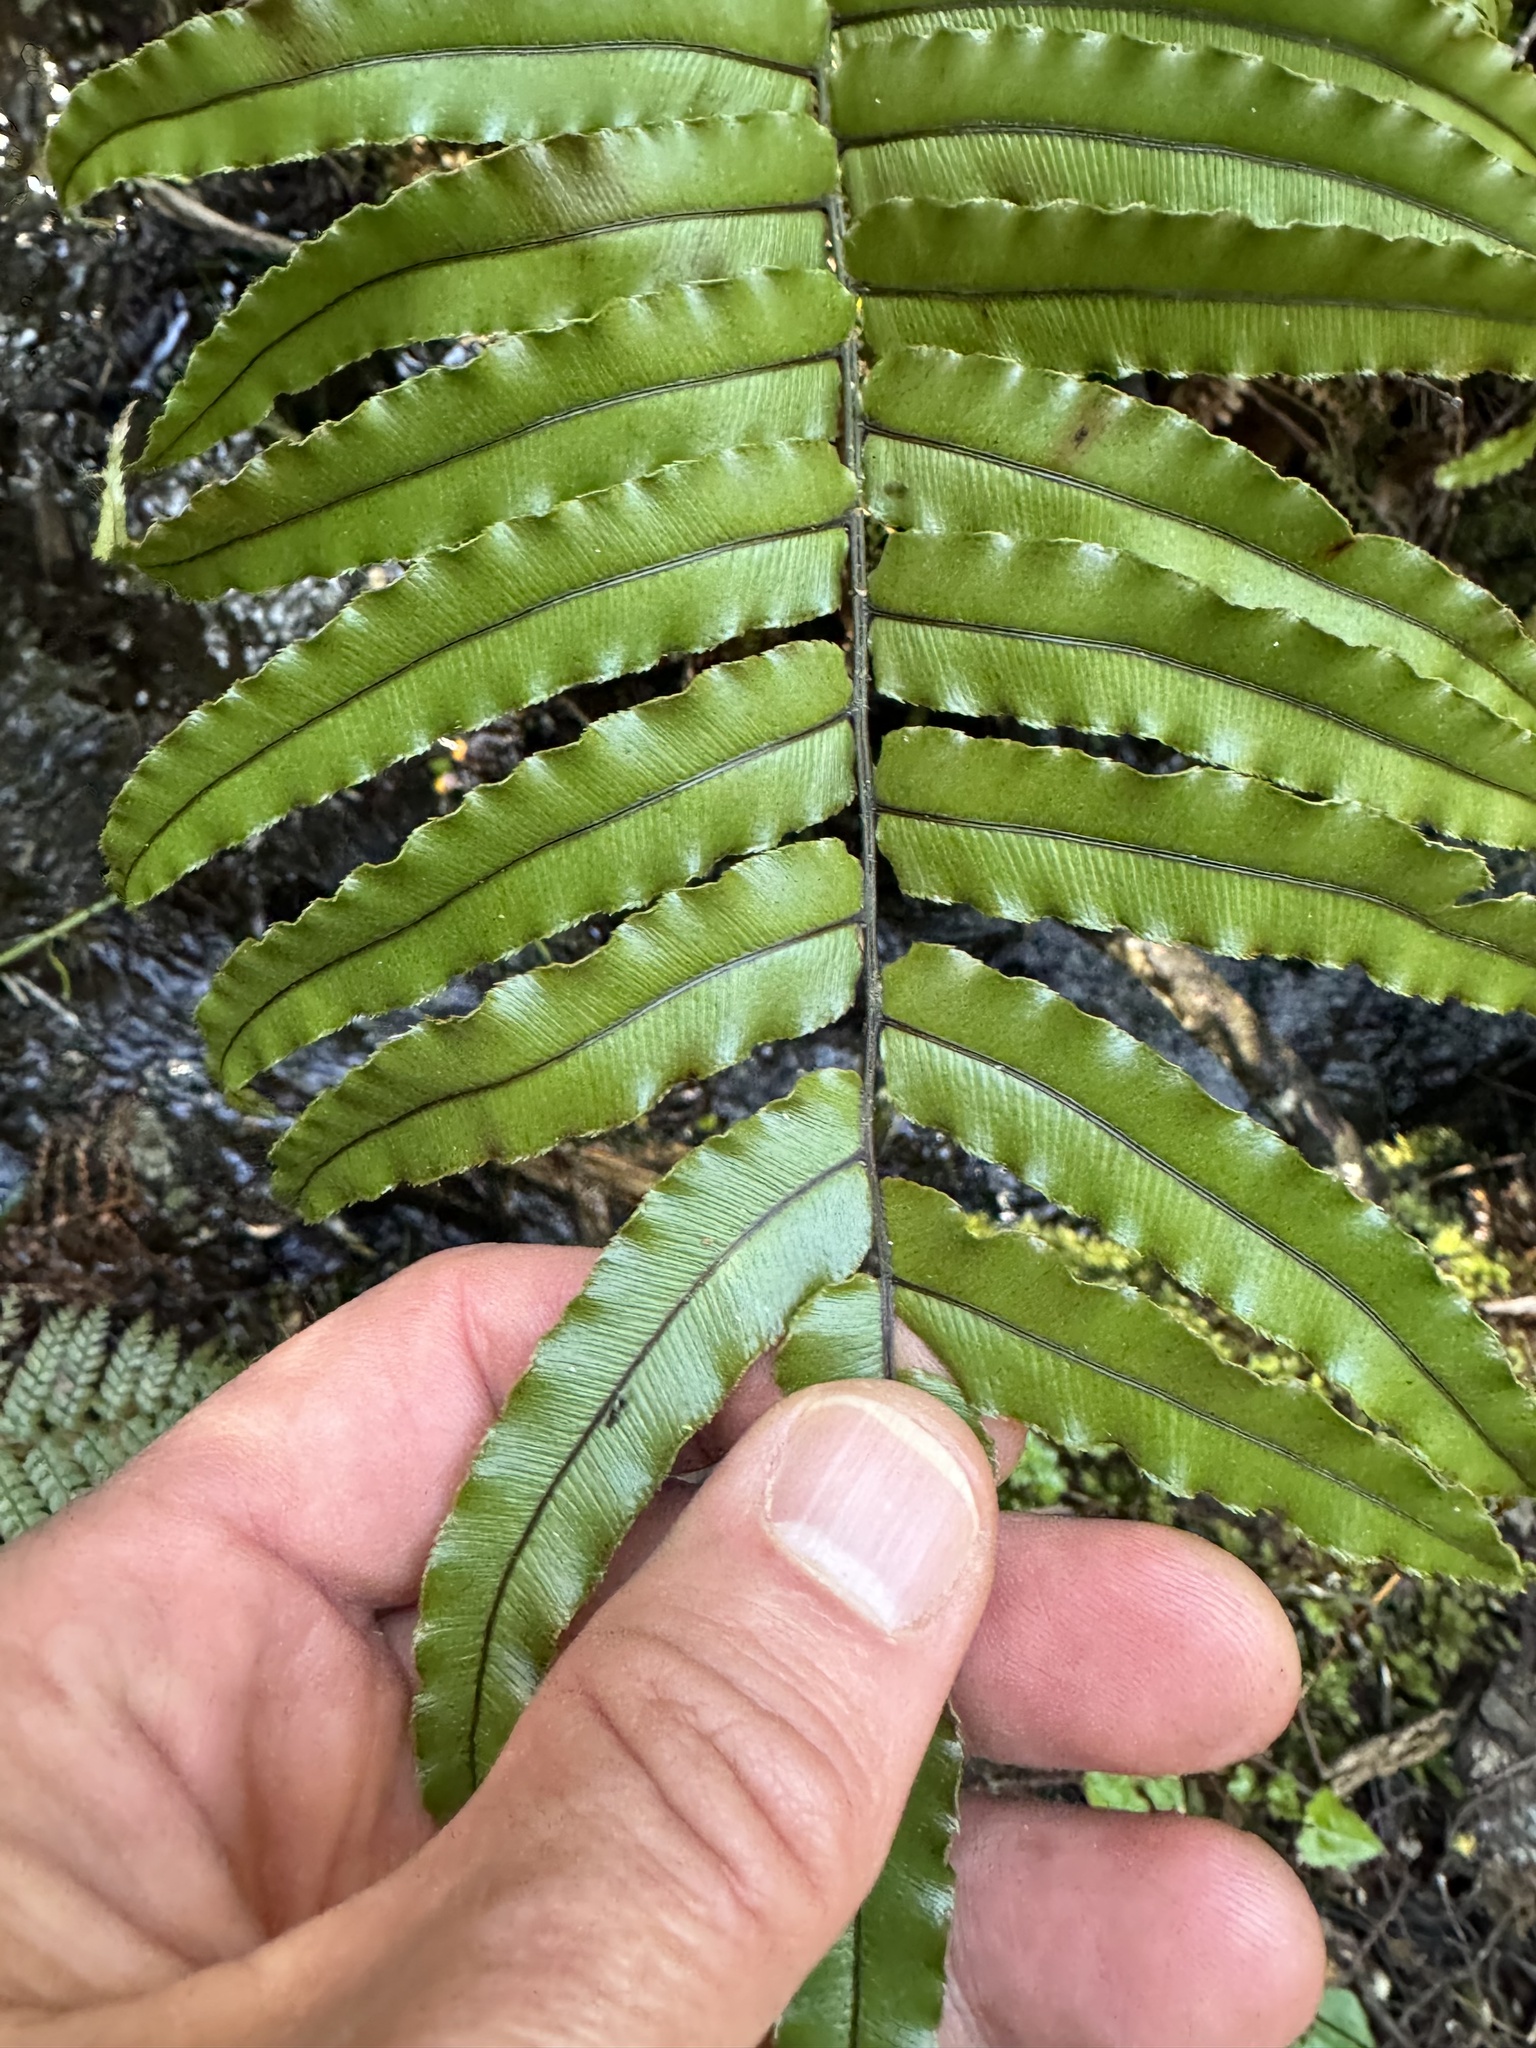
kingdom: Plantae
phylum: Tracheophyta
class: Polypodiopsida
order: Polypodiales
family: Blechnaceae
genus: Parablechnum
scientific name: Parablechnum montanum
